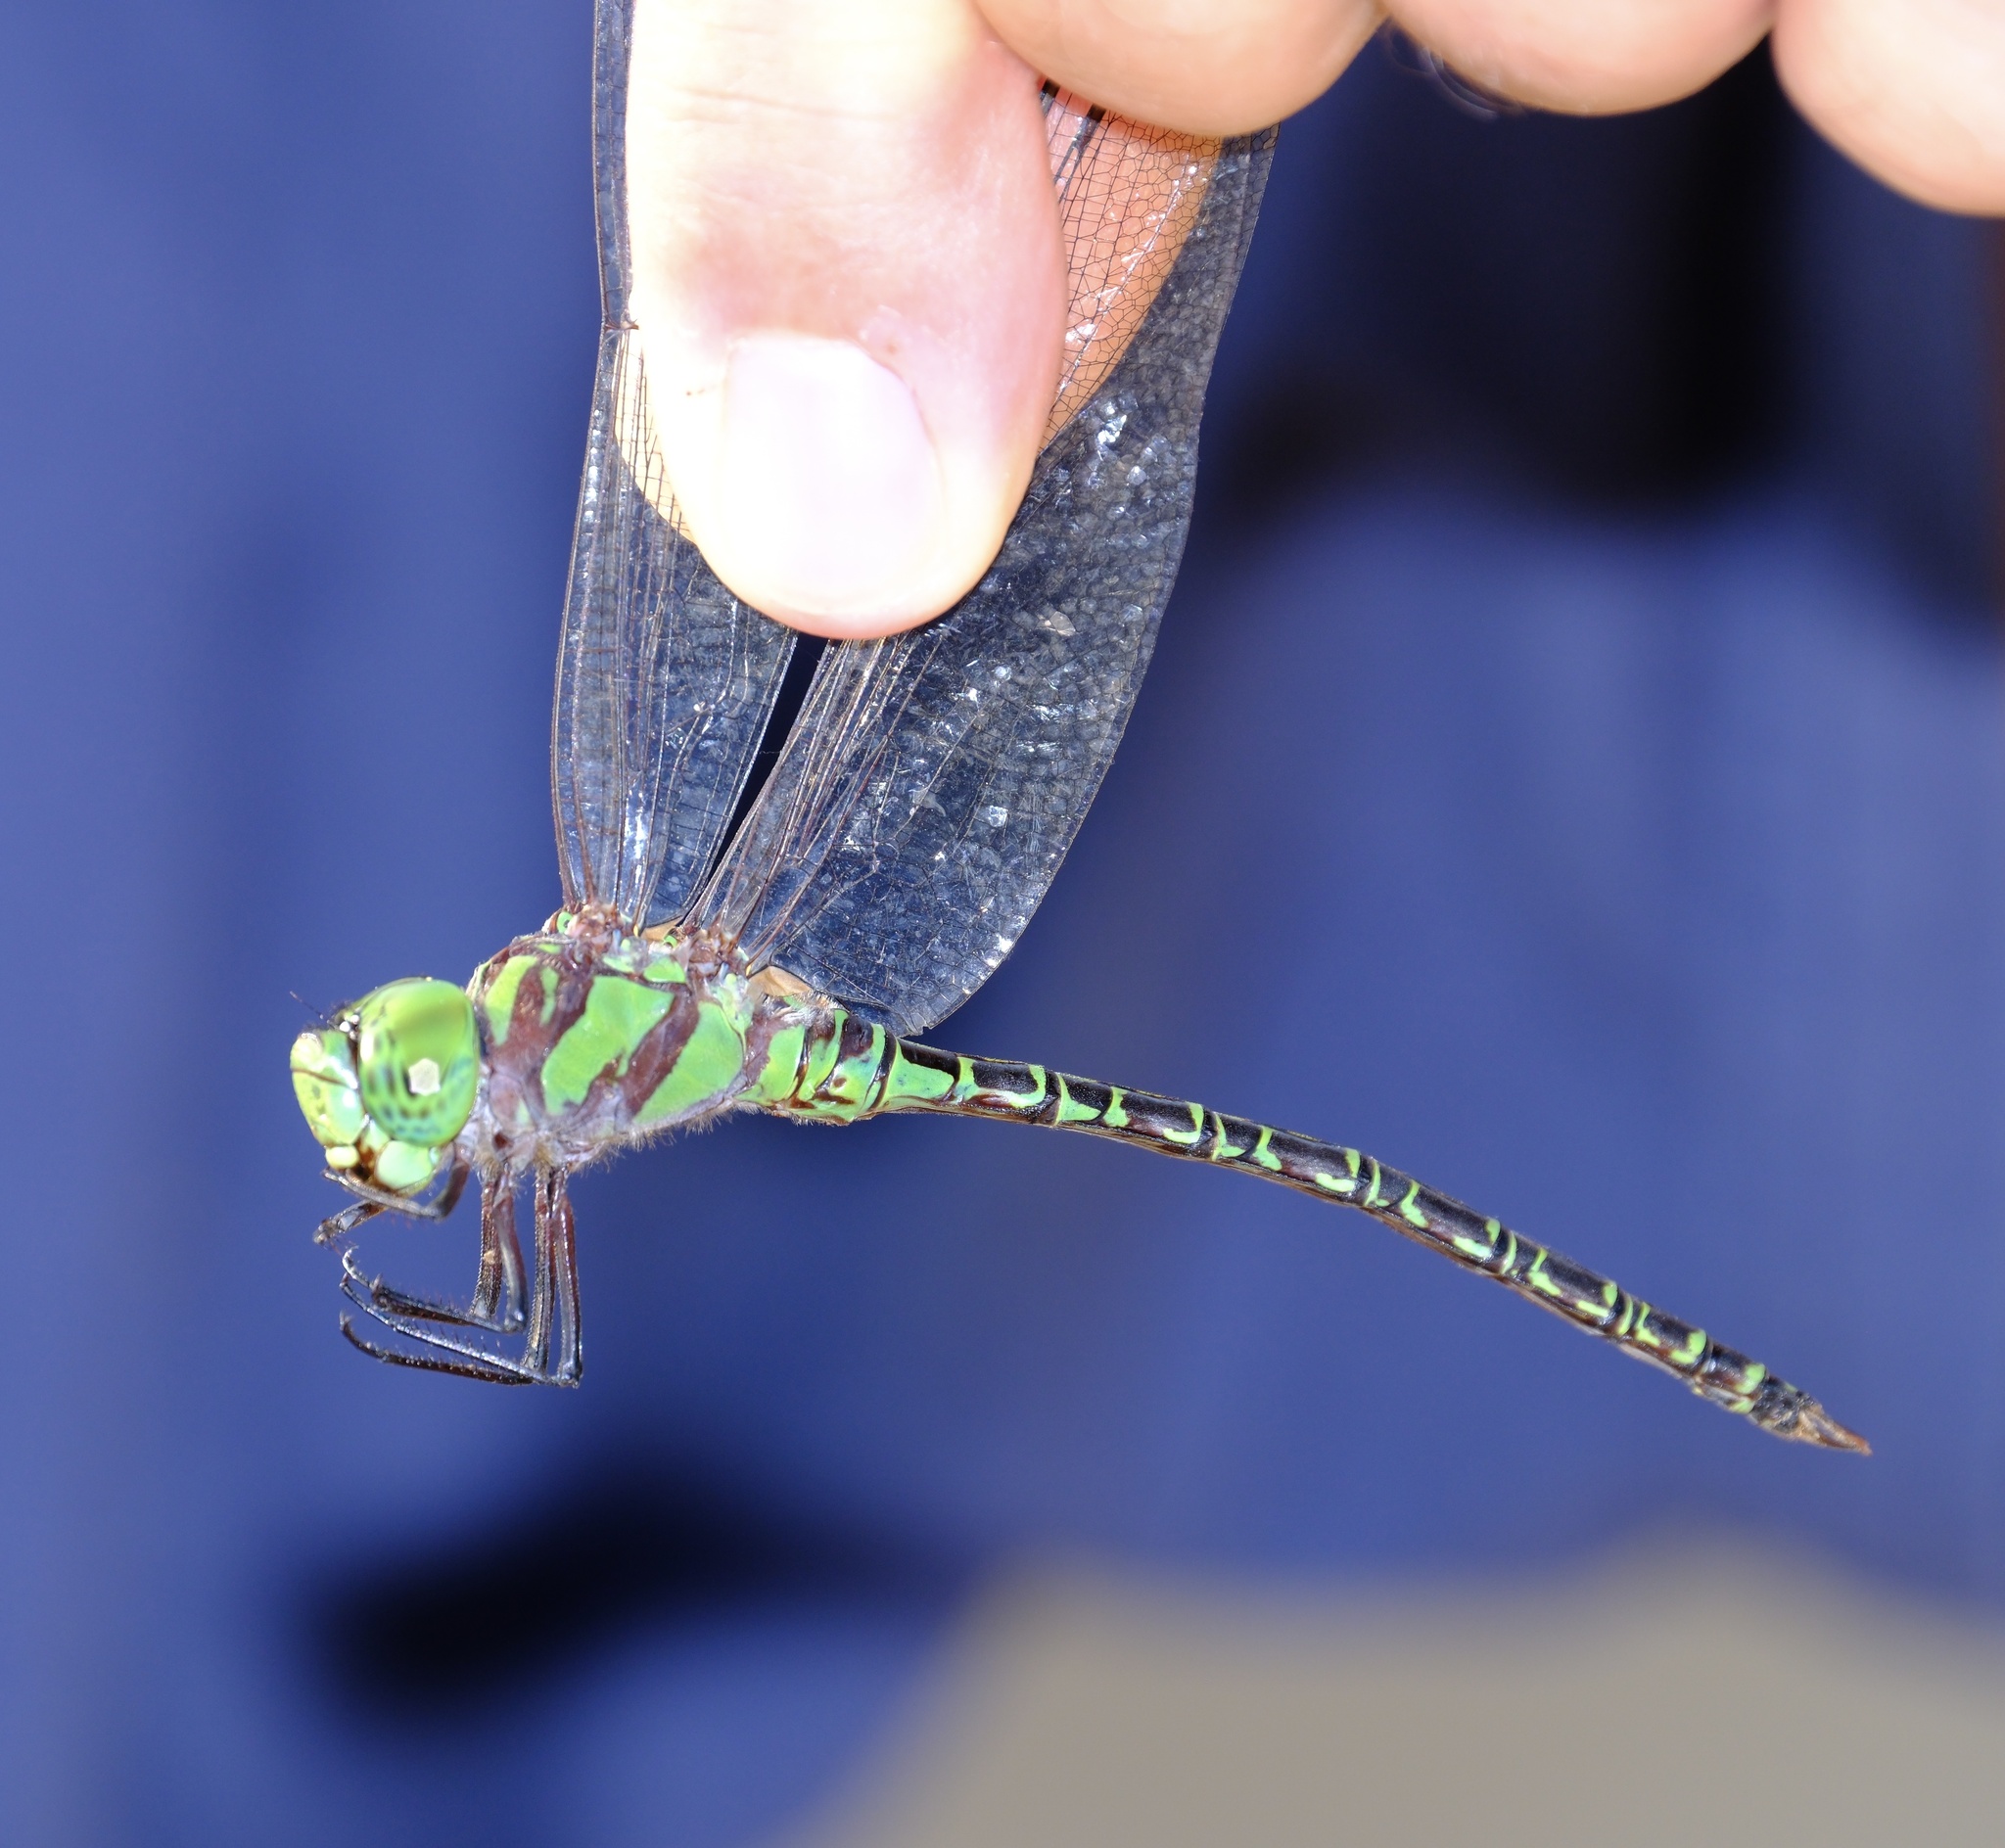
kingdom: Animalia
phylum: Arthropoda
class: Insecta
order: Odonata
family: Aeshnidae
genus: Coryphaeschna
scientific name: Coryphaeschna ingens
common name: Regal darner
